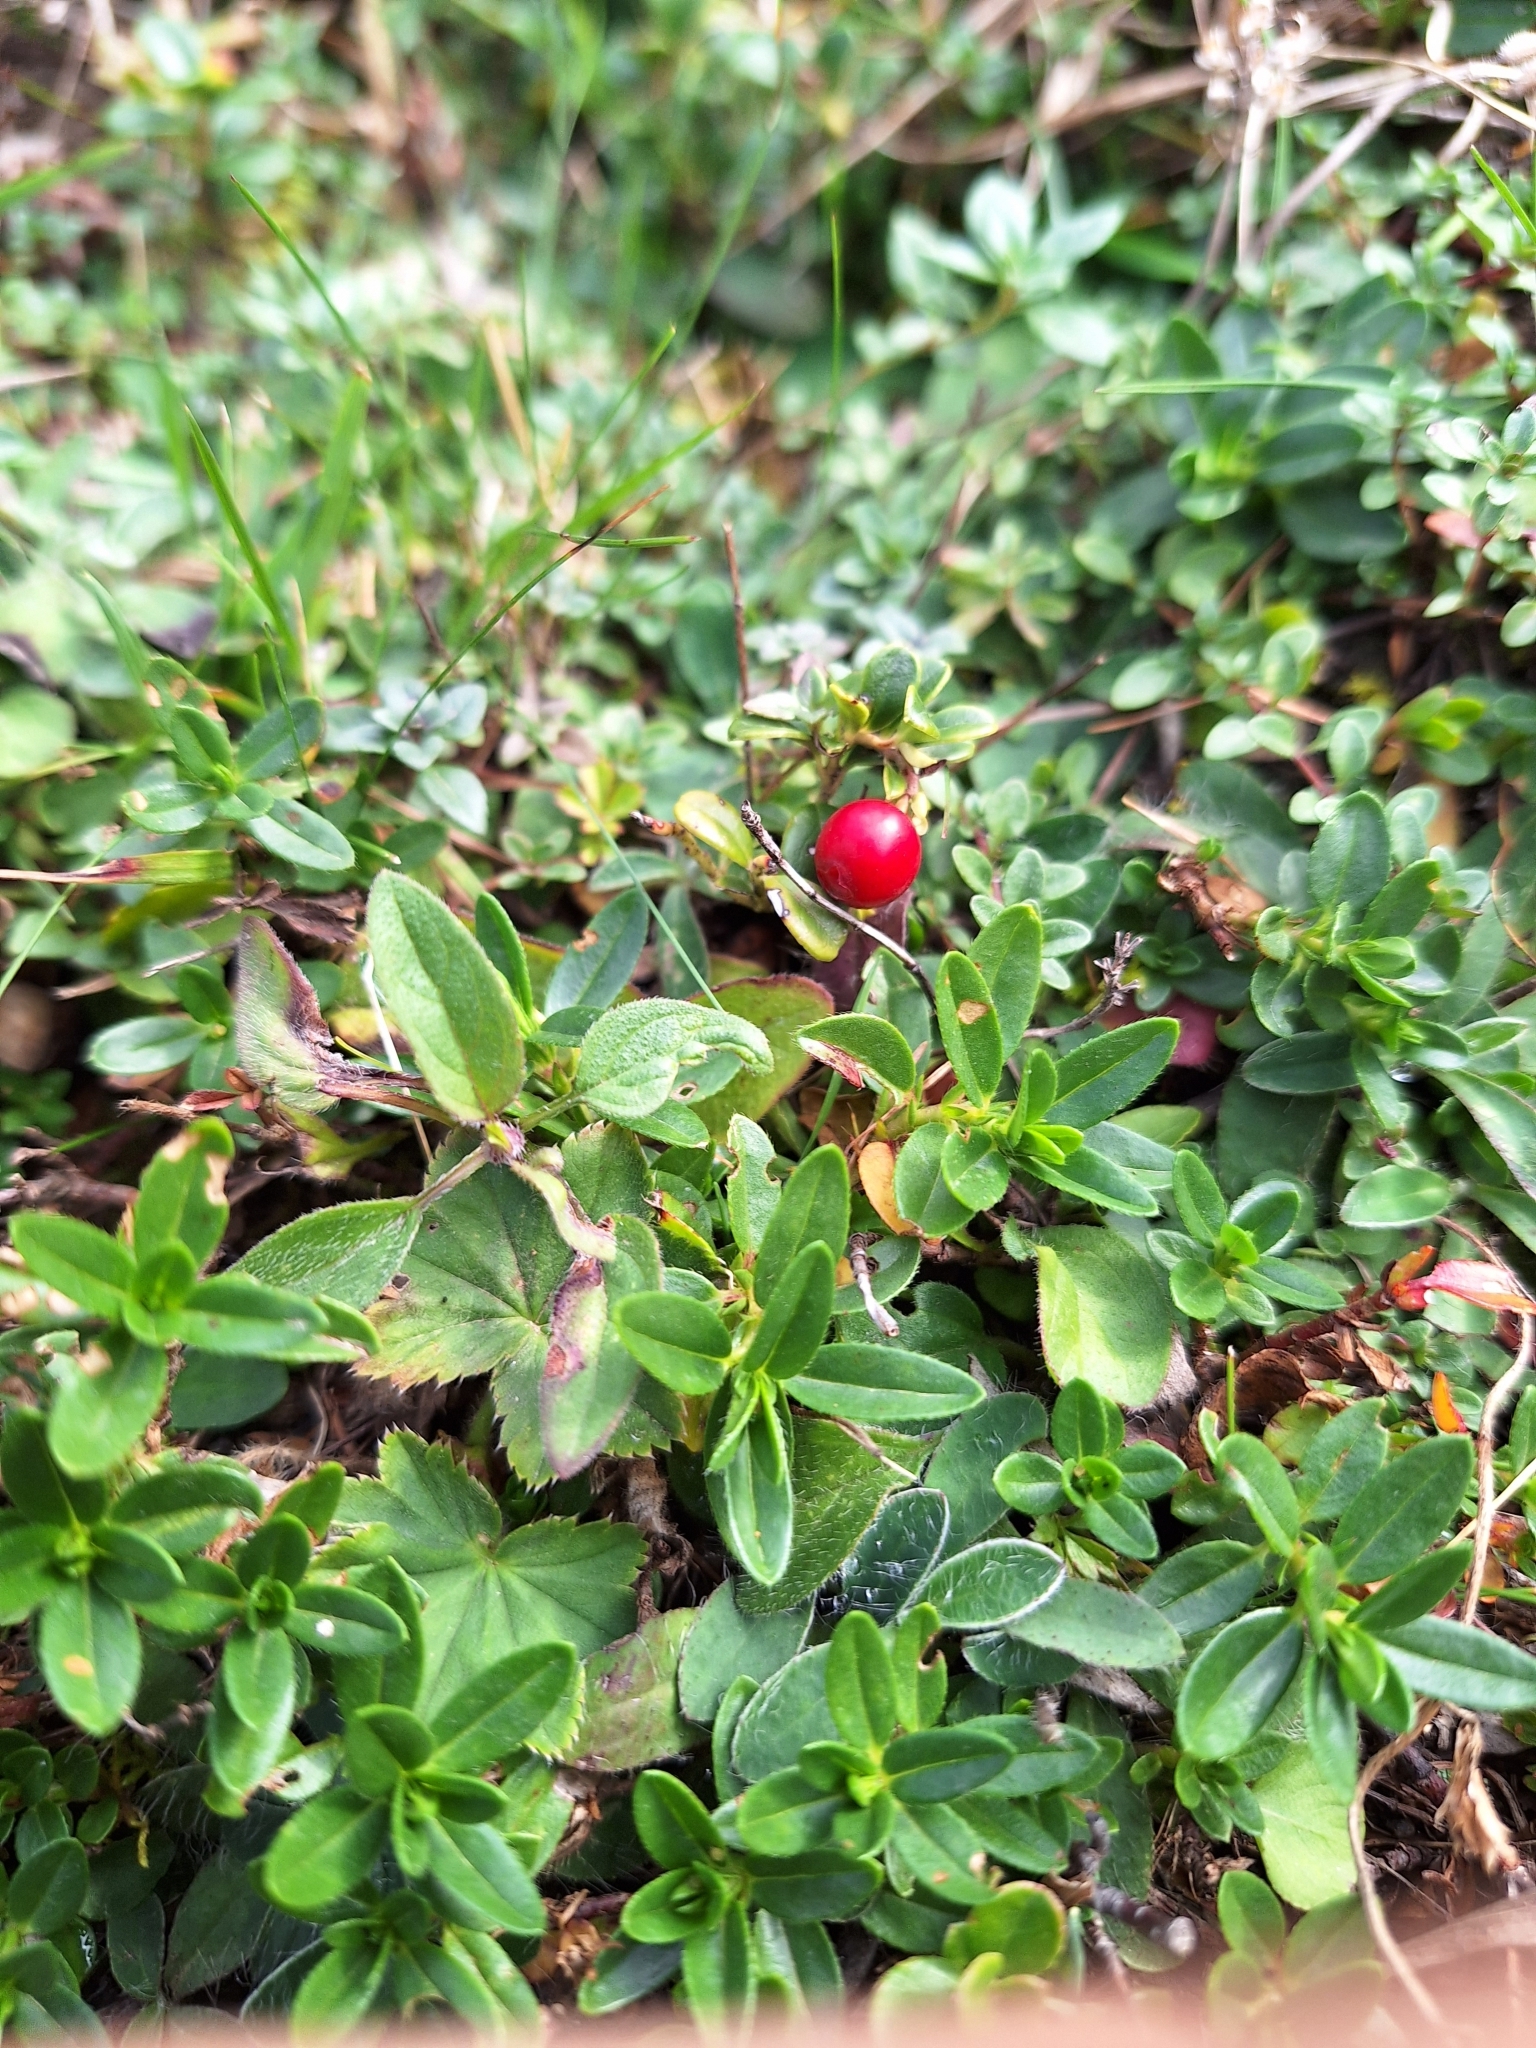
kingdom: Plantae
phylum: Tracheophyta
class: Magnoliopsida
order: Ericales
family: Ericaceae
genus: Vaccinium
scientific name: Vaccinium vitis-idaea
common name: Cowberry
